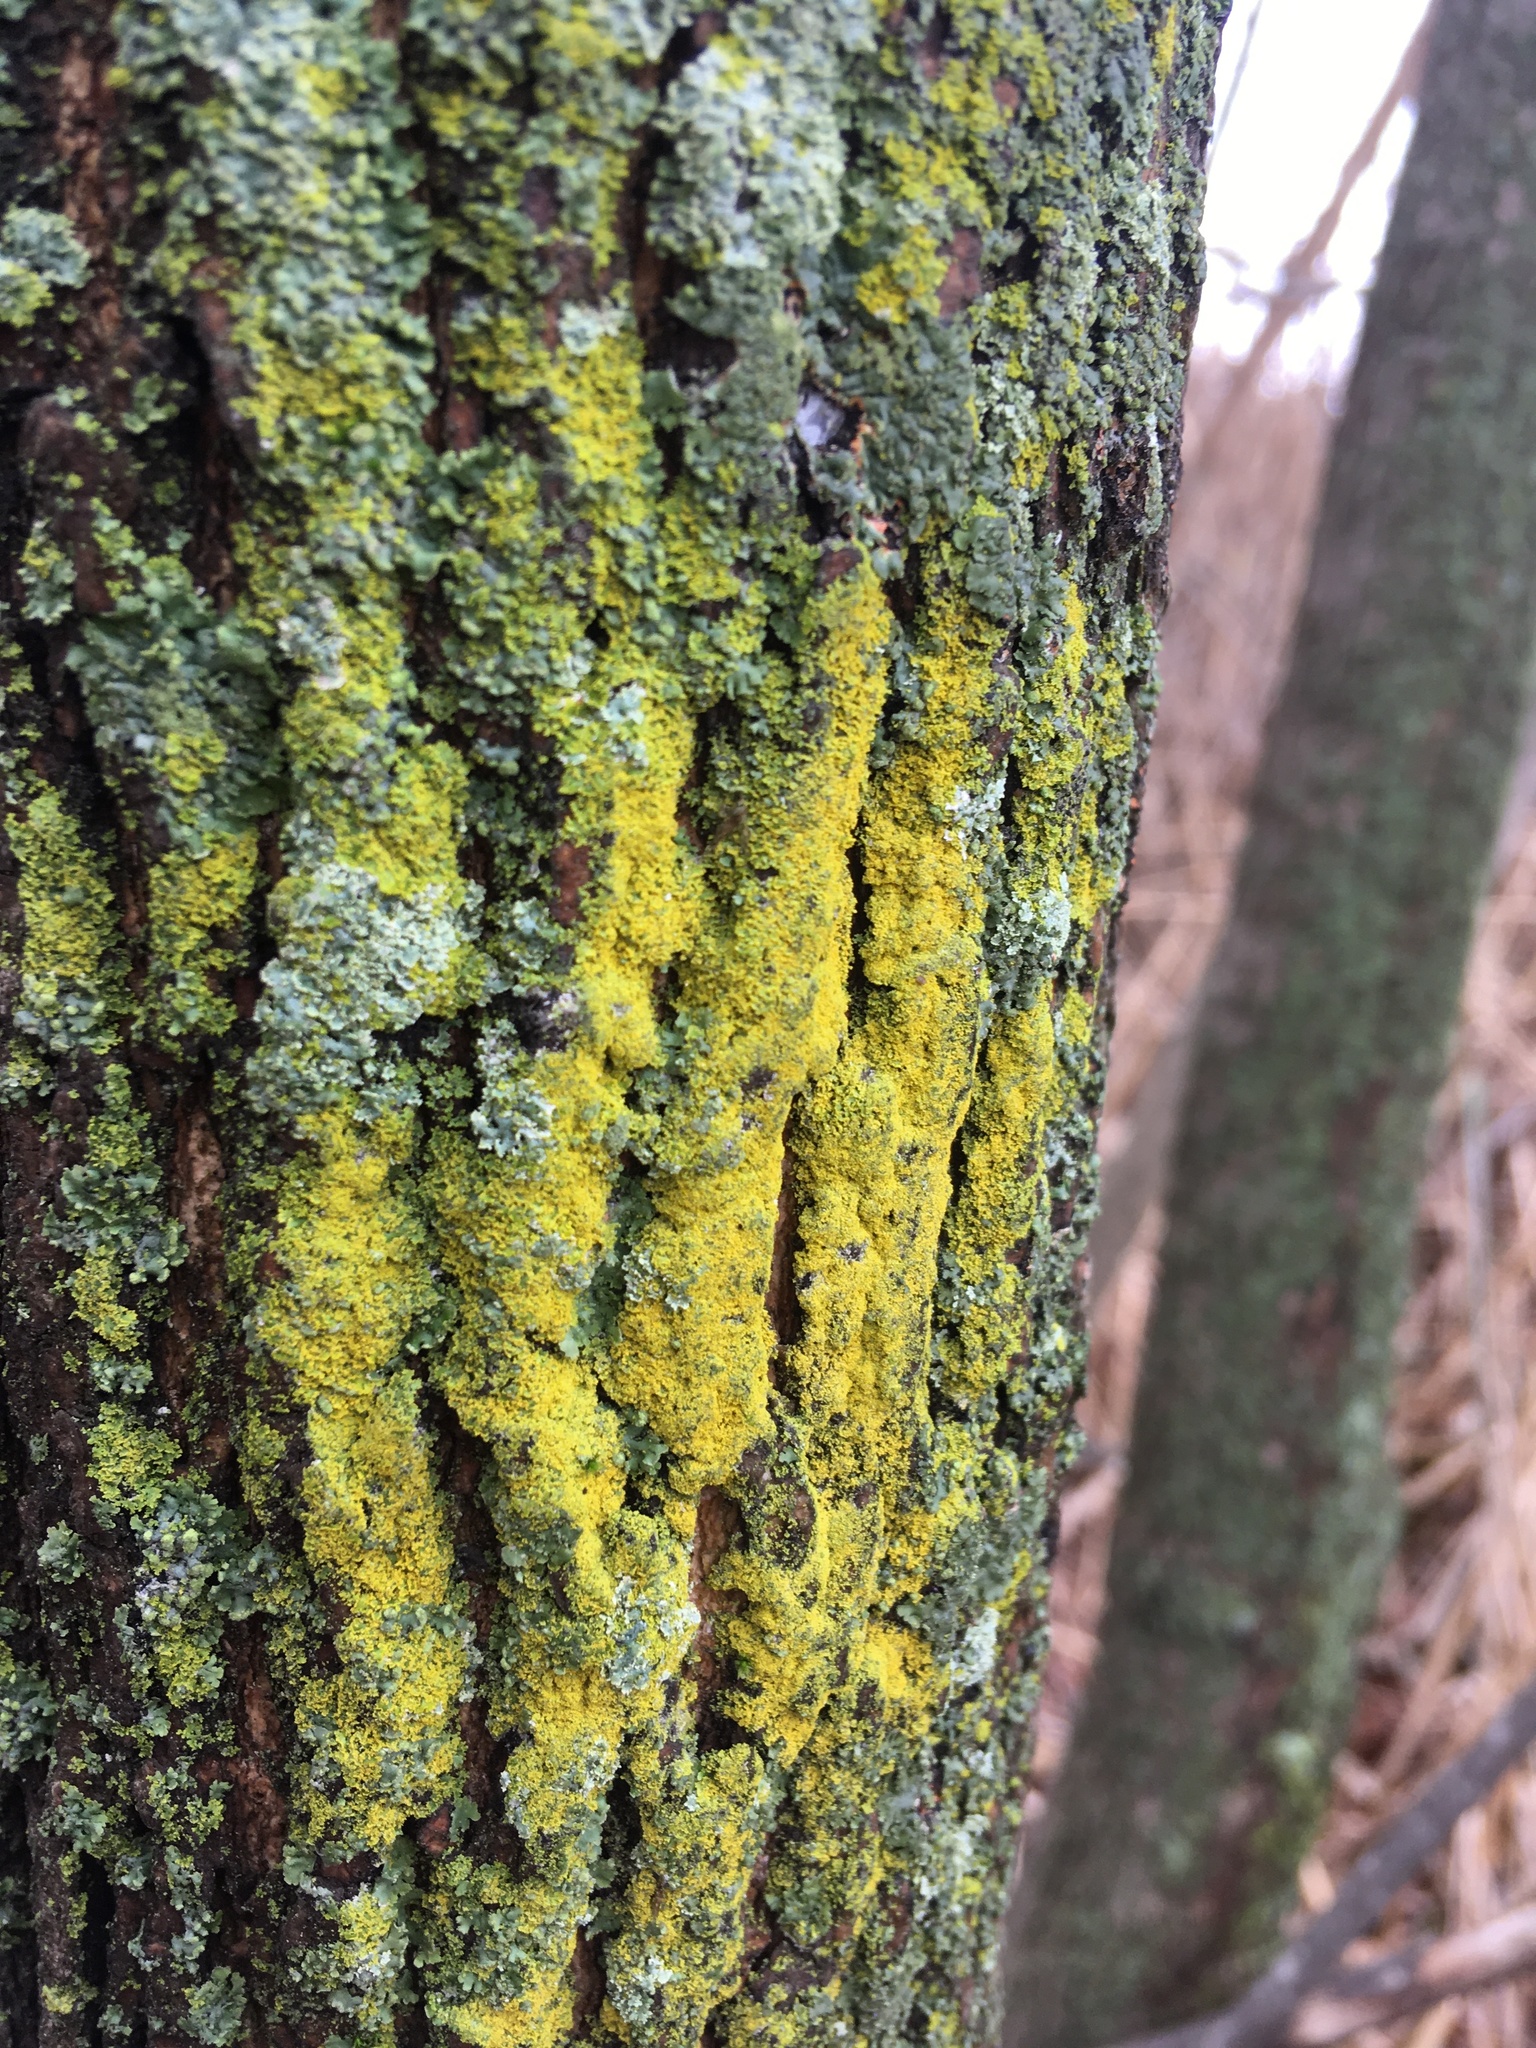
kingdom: Fungi
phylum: Ascomycota
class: Candelariomycetes
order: Candelariales
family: Candelariaceae
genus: Candelaria
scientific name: Candelaria concolor
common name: Candleflame lichen
